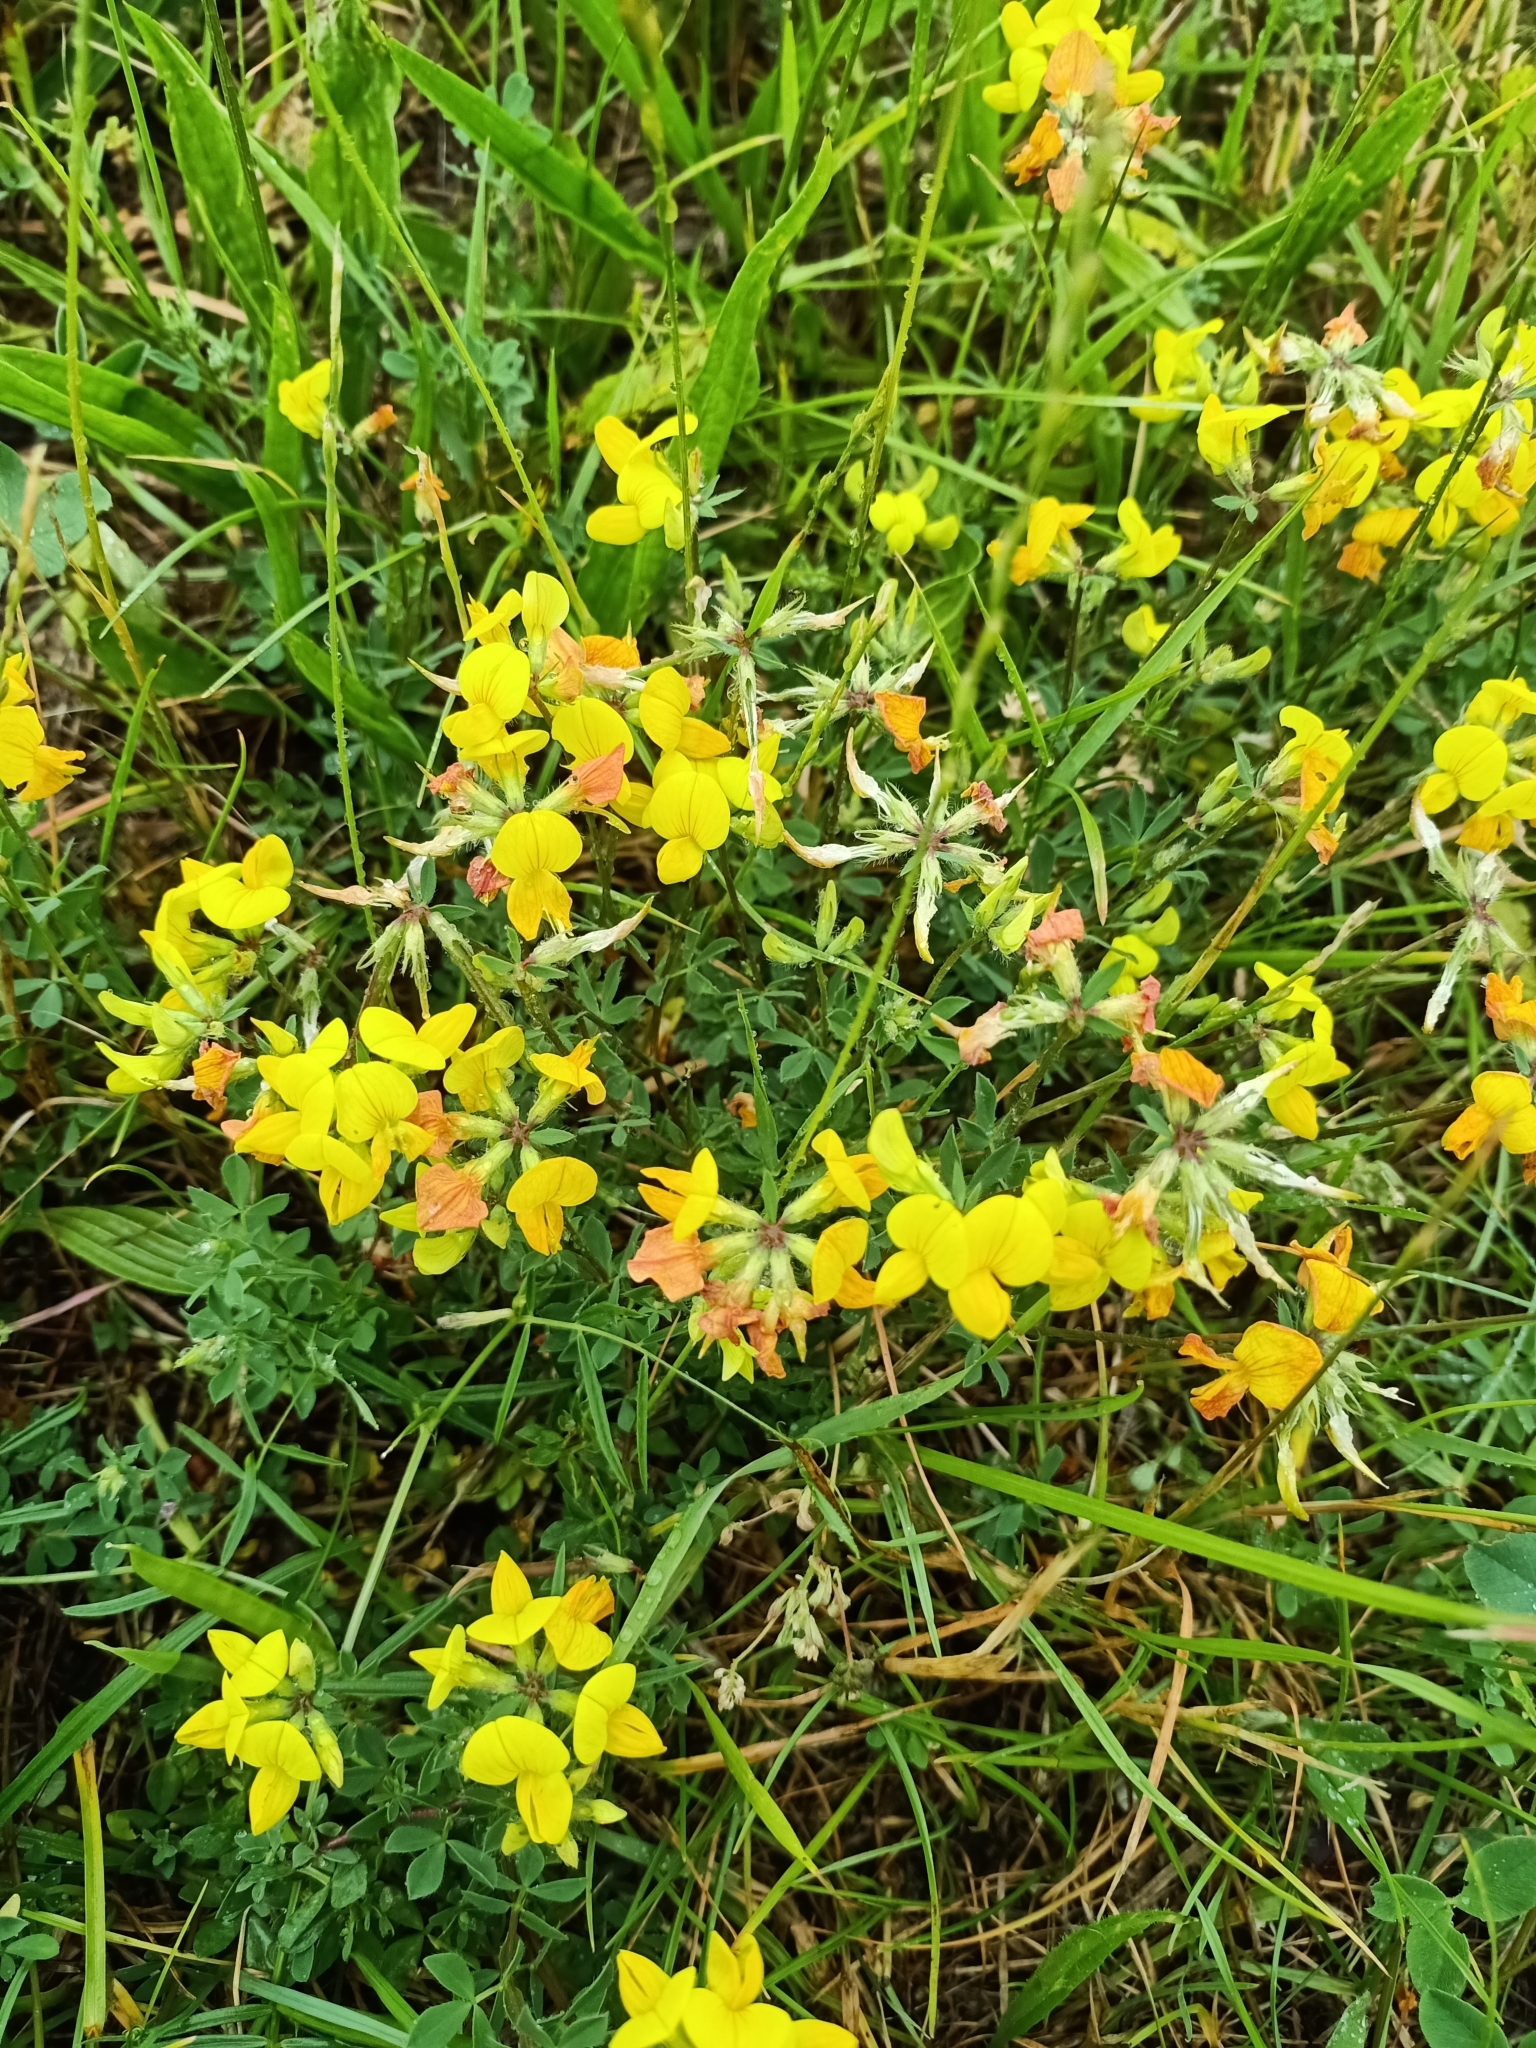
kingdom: Plantae
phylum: Tracheophyta
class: Magnoliopsida
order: Fabales
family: Fabaceae
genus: Lotus
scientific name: Lotus corniculatus
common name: Common bird's-foot-trefoil
